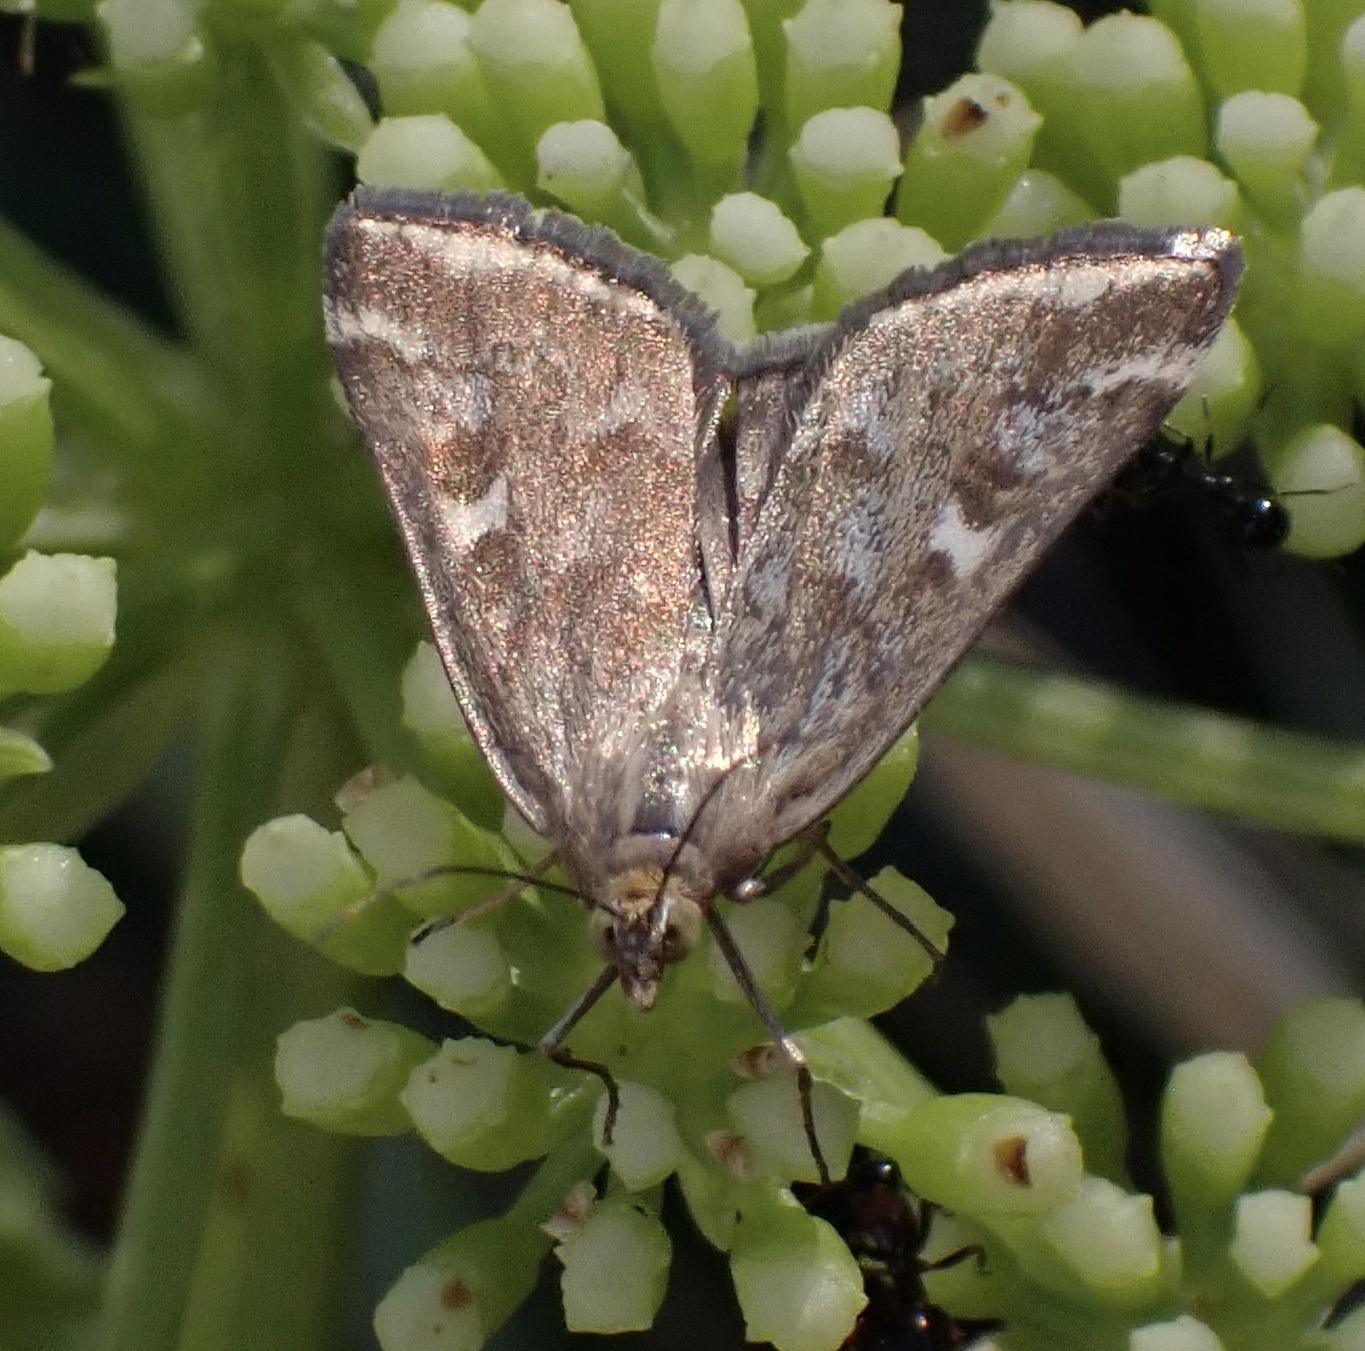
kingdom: Animalia
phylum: Arthropoda
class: Insecta
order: Lepidoptera
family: Crambidae
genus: Loxostege
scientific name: Loxostege sticticalis
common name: Crambid moth
